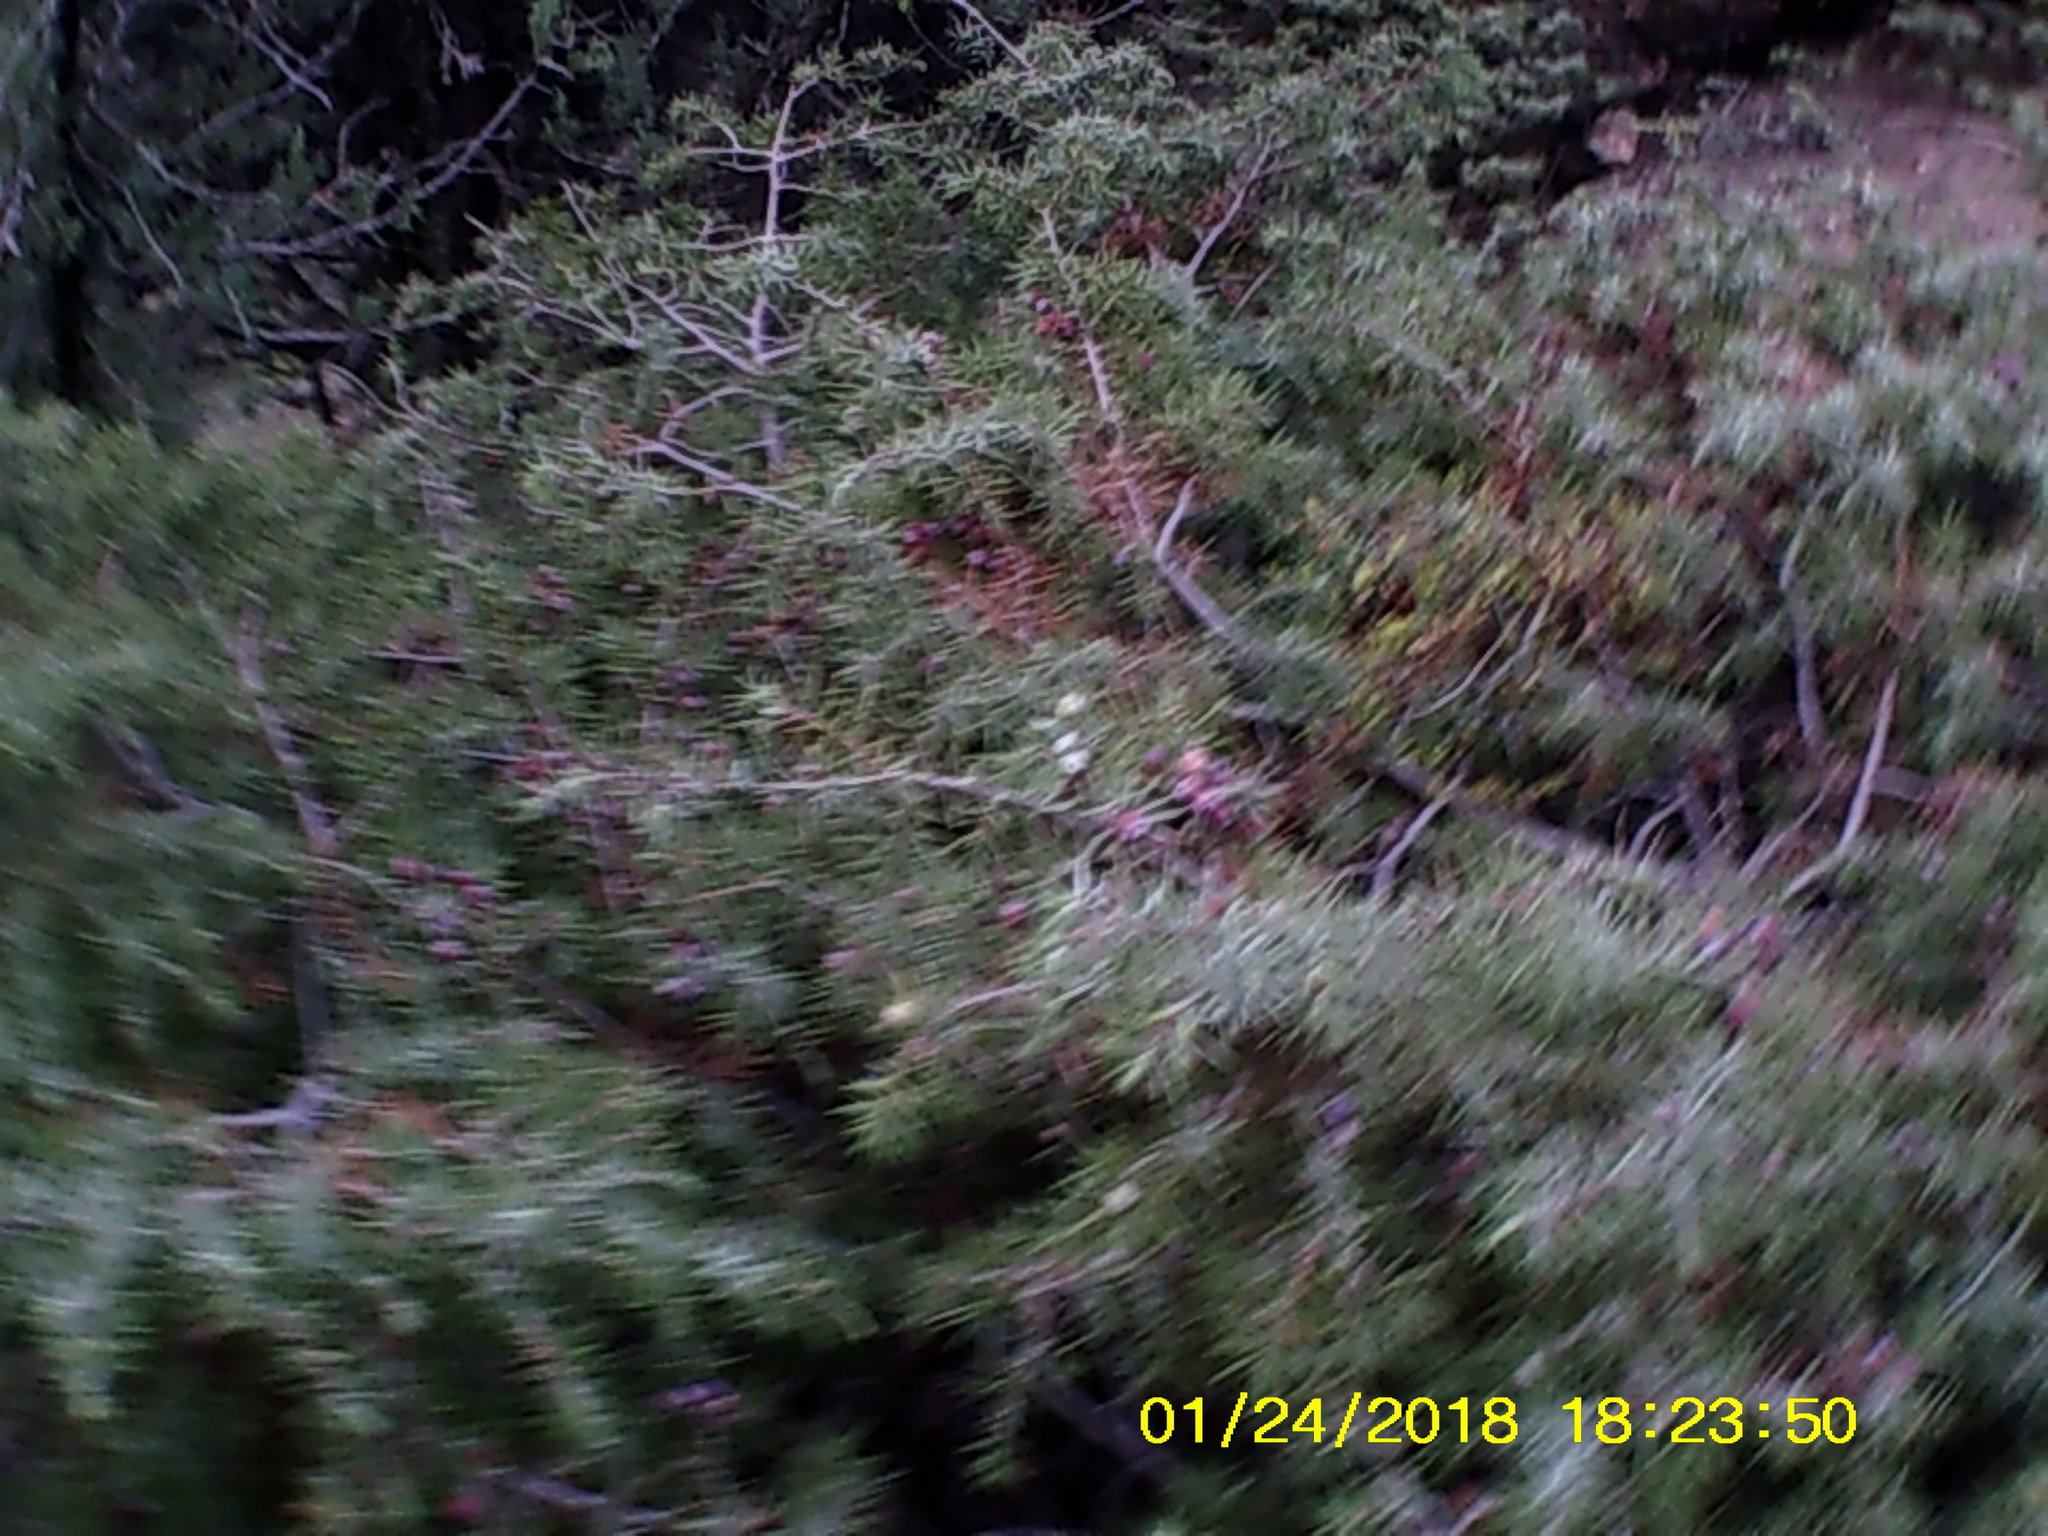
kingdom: Plantae
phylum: Tracheophyta
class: Pinopsida
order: Pinales
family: Cupressaceae
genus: Juniperus
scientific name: Juniperus oxycedrus
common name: Prickly juniper
